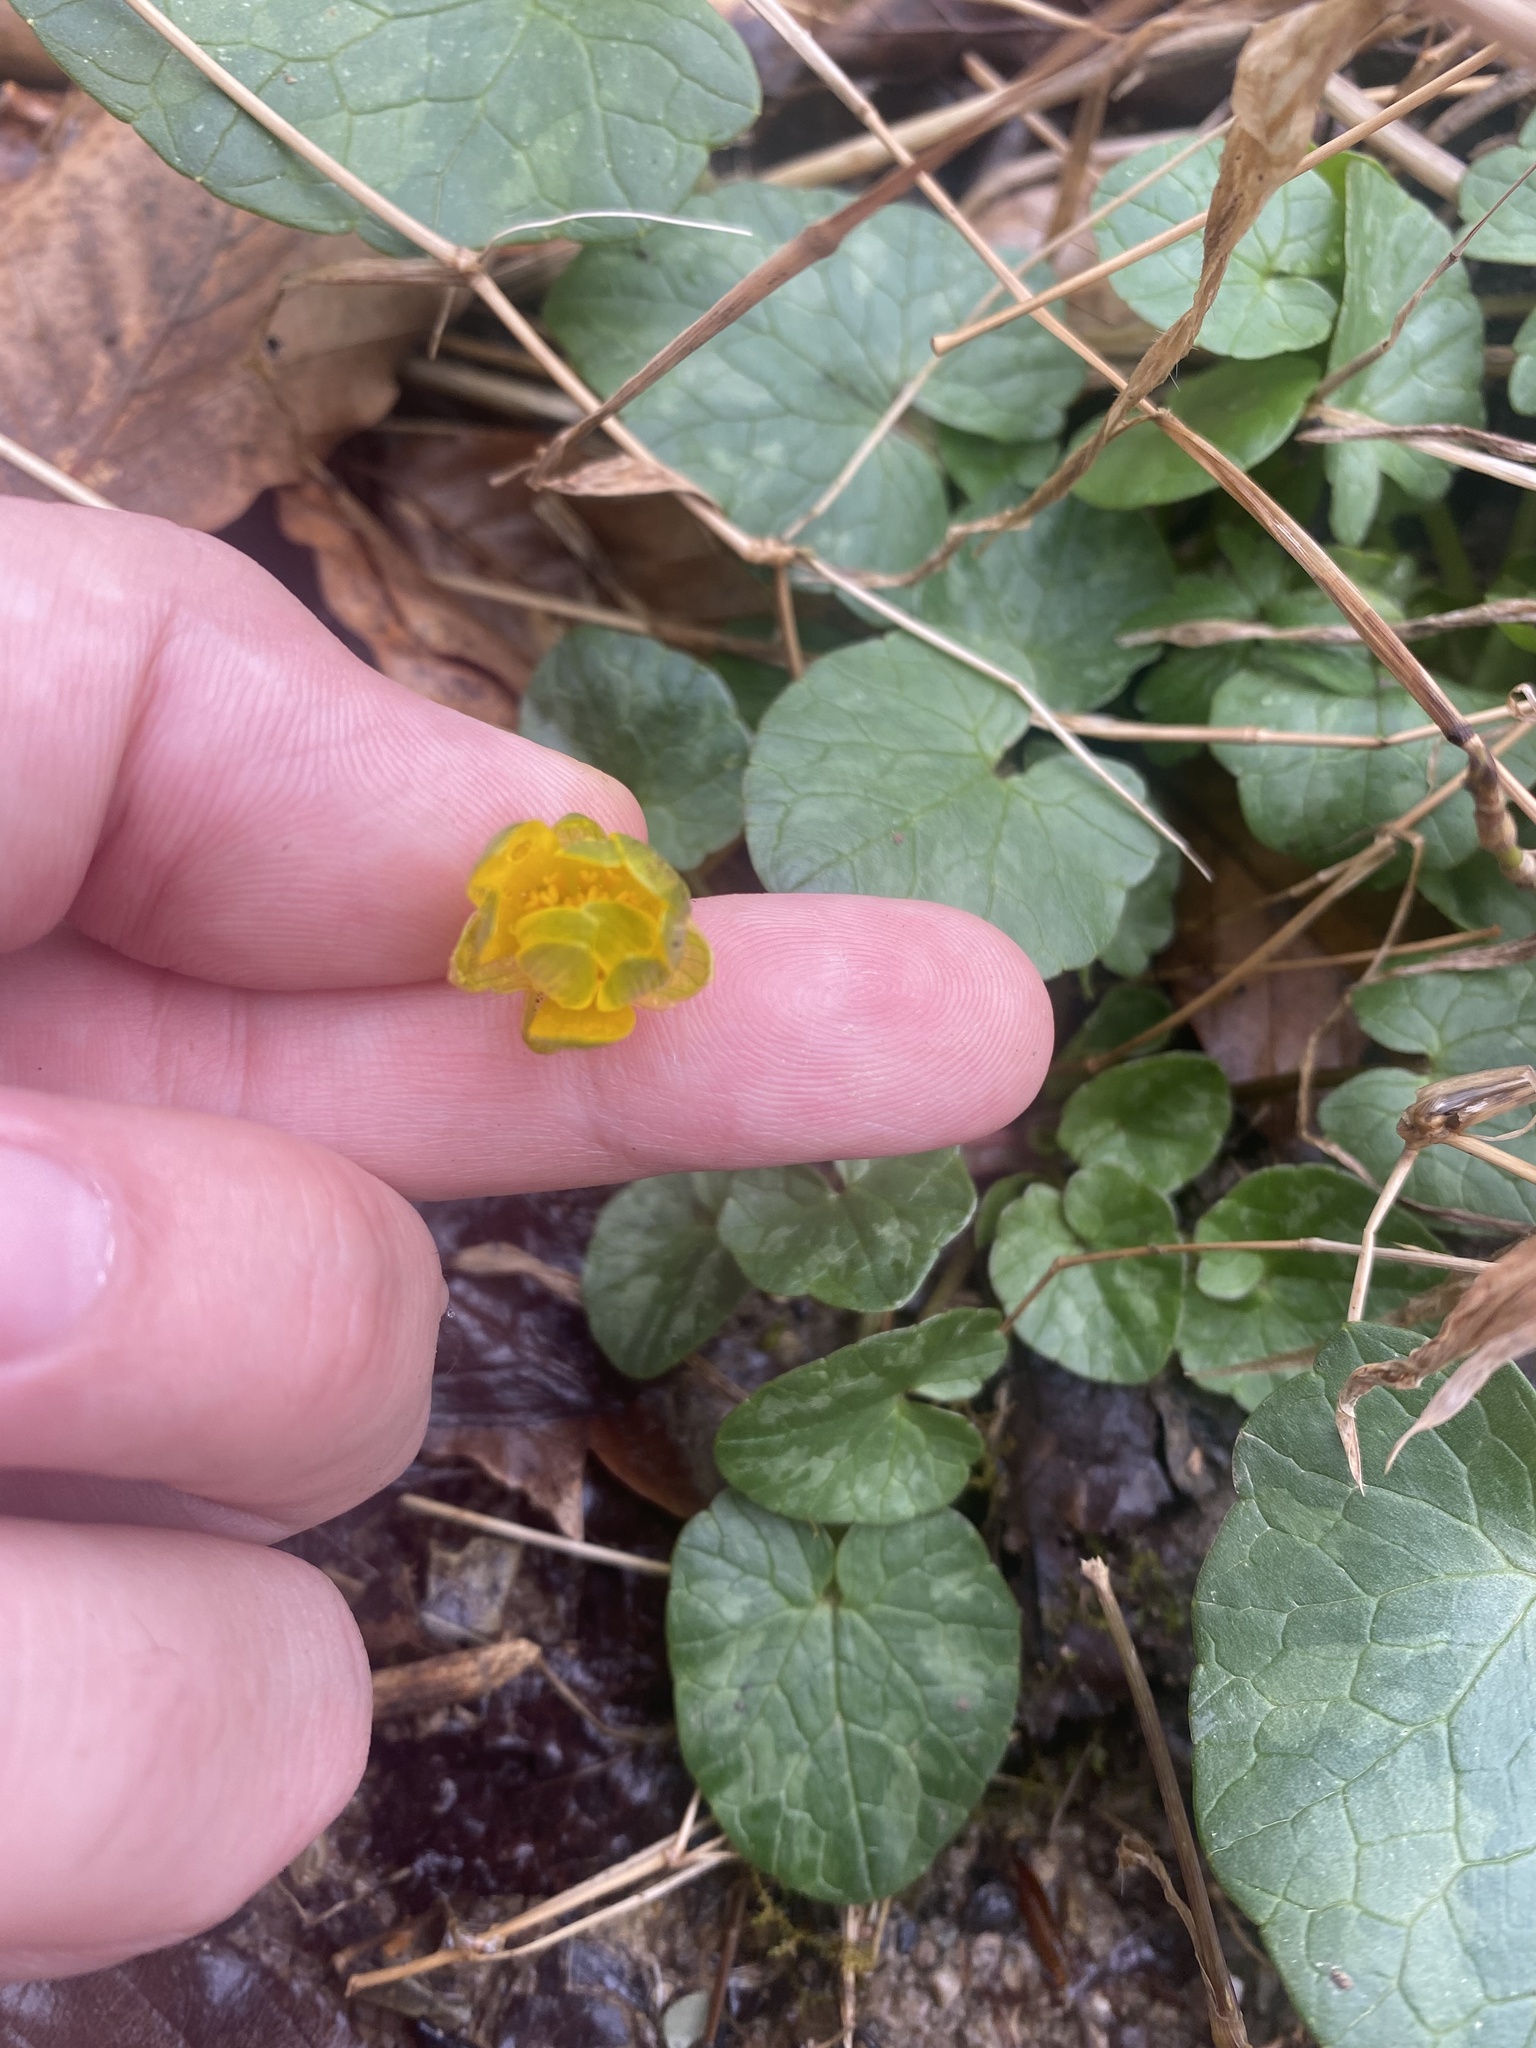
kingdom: Plantae
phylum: Tracheophyta
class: Magnoliopsida
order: Ranunculales
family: Ranunculaceae
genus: Ficaria
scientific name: Ficaria verna
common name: Lesser celandine
